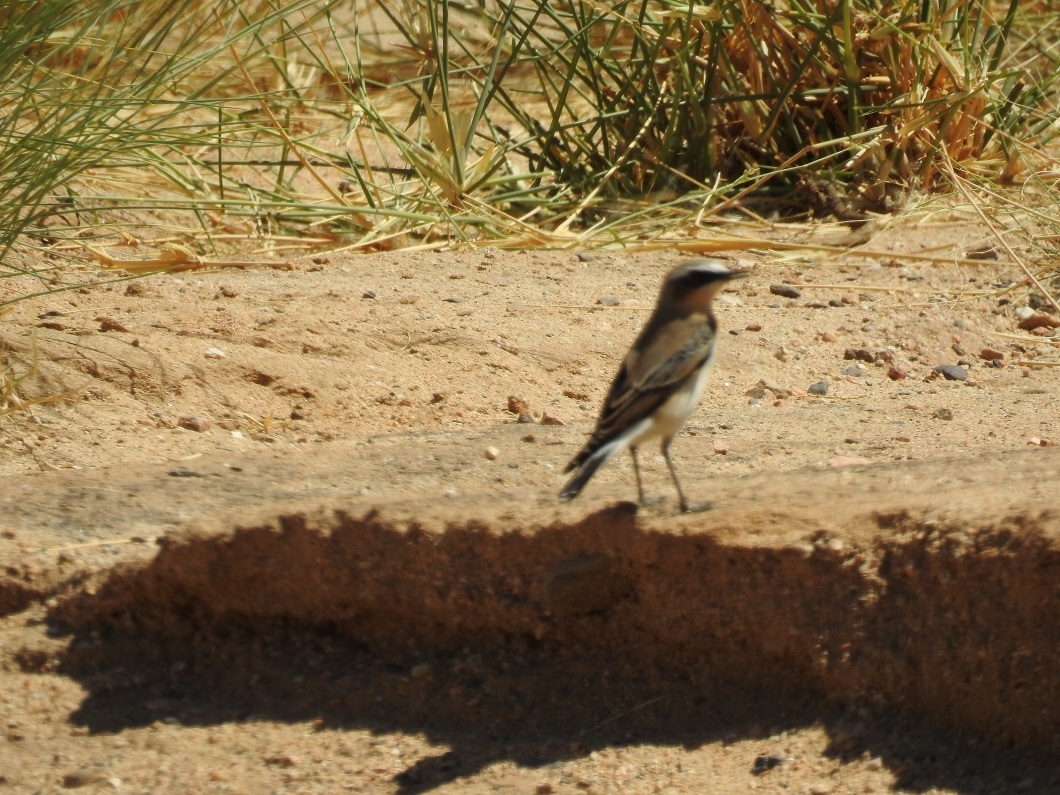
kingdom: Animalia
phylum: Chordata
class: Aves
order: Passeriformes
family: Muscicapidae
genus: Oenanthe
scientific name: Oenanthe oenanthe
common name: Northern wheatear
